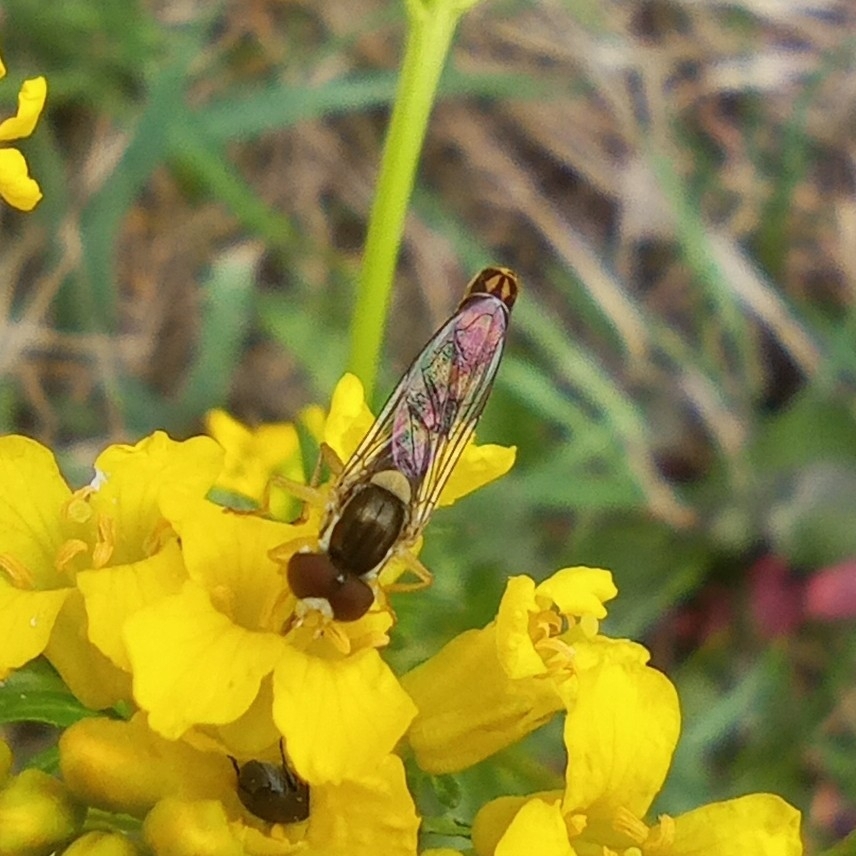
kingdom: Animalia
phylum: Arthropoda
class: Insecta
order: Diptera
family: Syrphidae
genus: Sphaerophoria
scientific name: Sphaerophoria scripta
